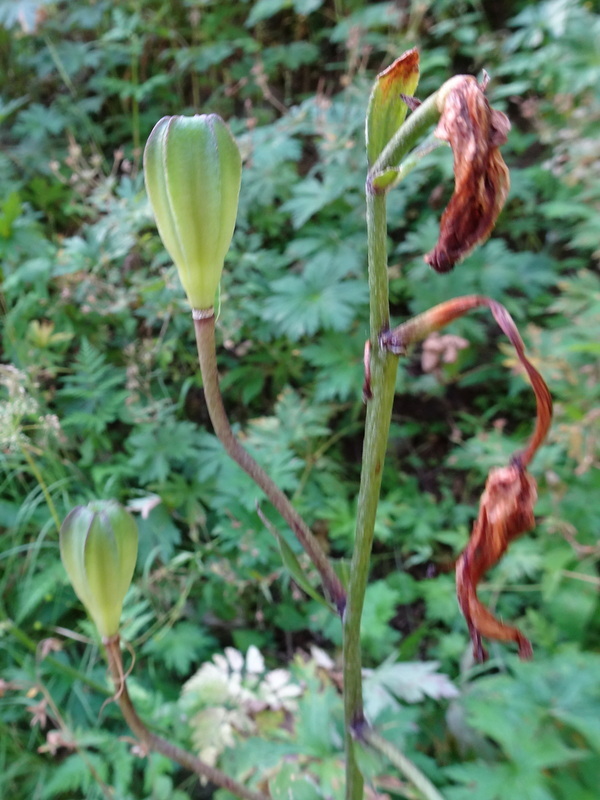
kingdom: Plantae
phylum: Tracheophyta
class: Liliopsida
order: Liliales
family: Liliaceae
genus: Lilium
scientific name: Lilium martagon
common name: Martagon lily
